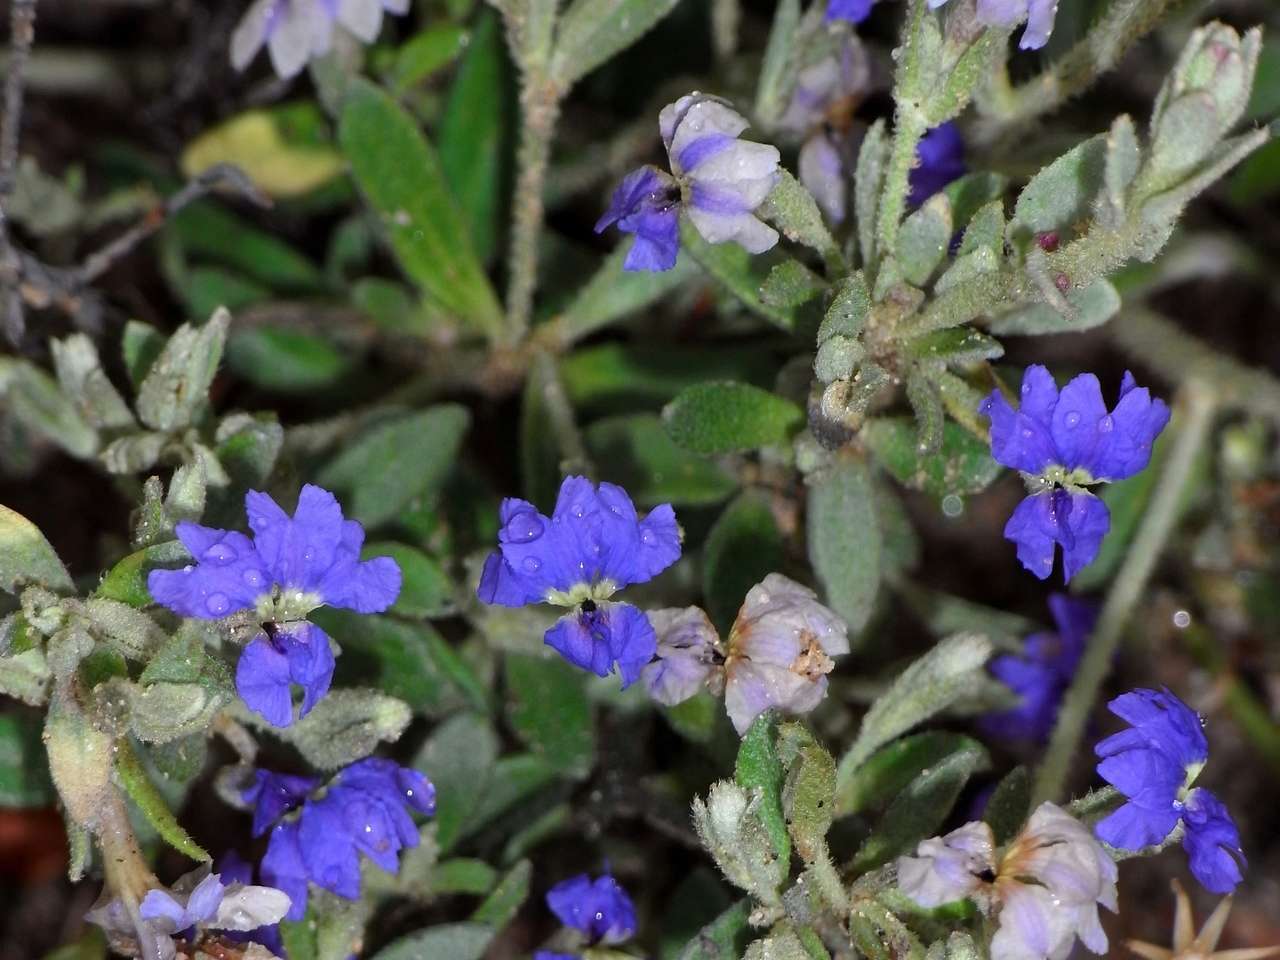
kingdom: Plantae
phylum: Tracheophyta
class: Magnoliopsida
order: Asterales
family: Goodeniaceae
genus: Dampiera
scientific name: Dampiera marifolia
